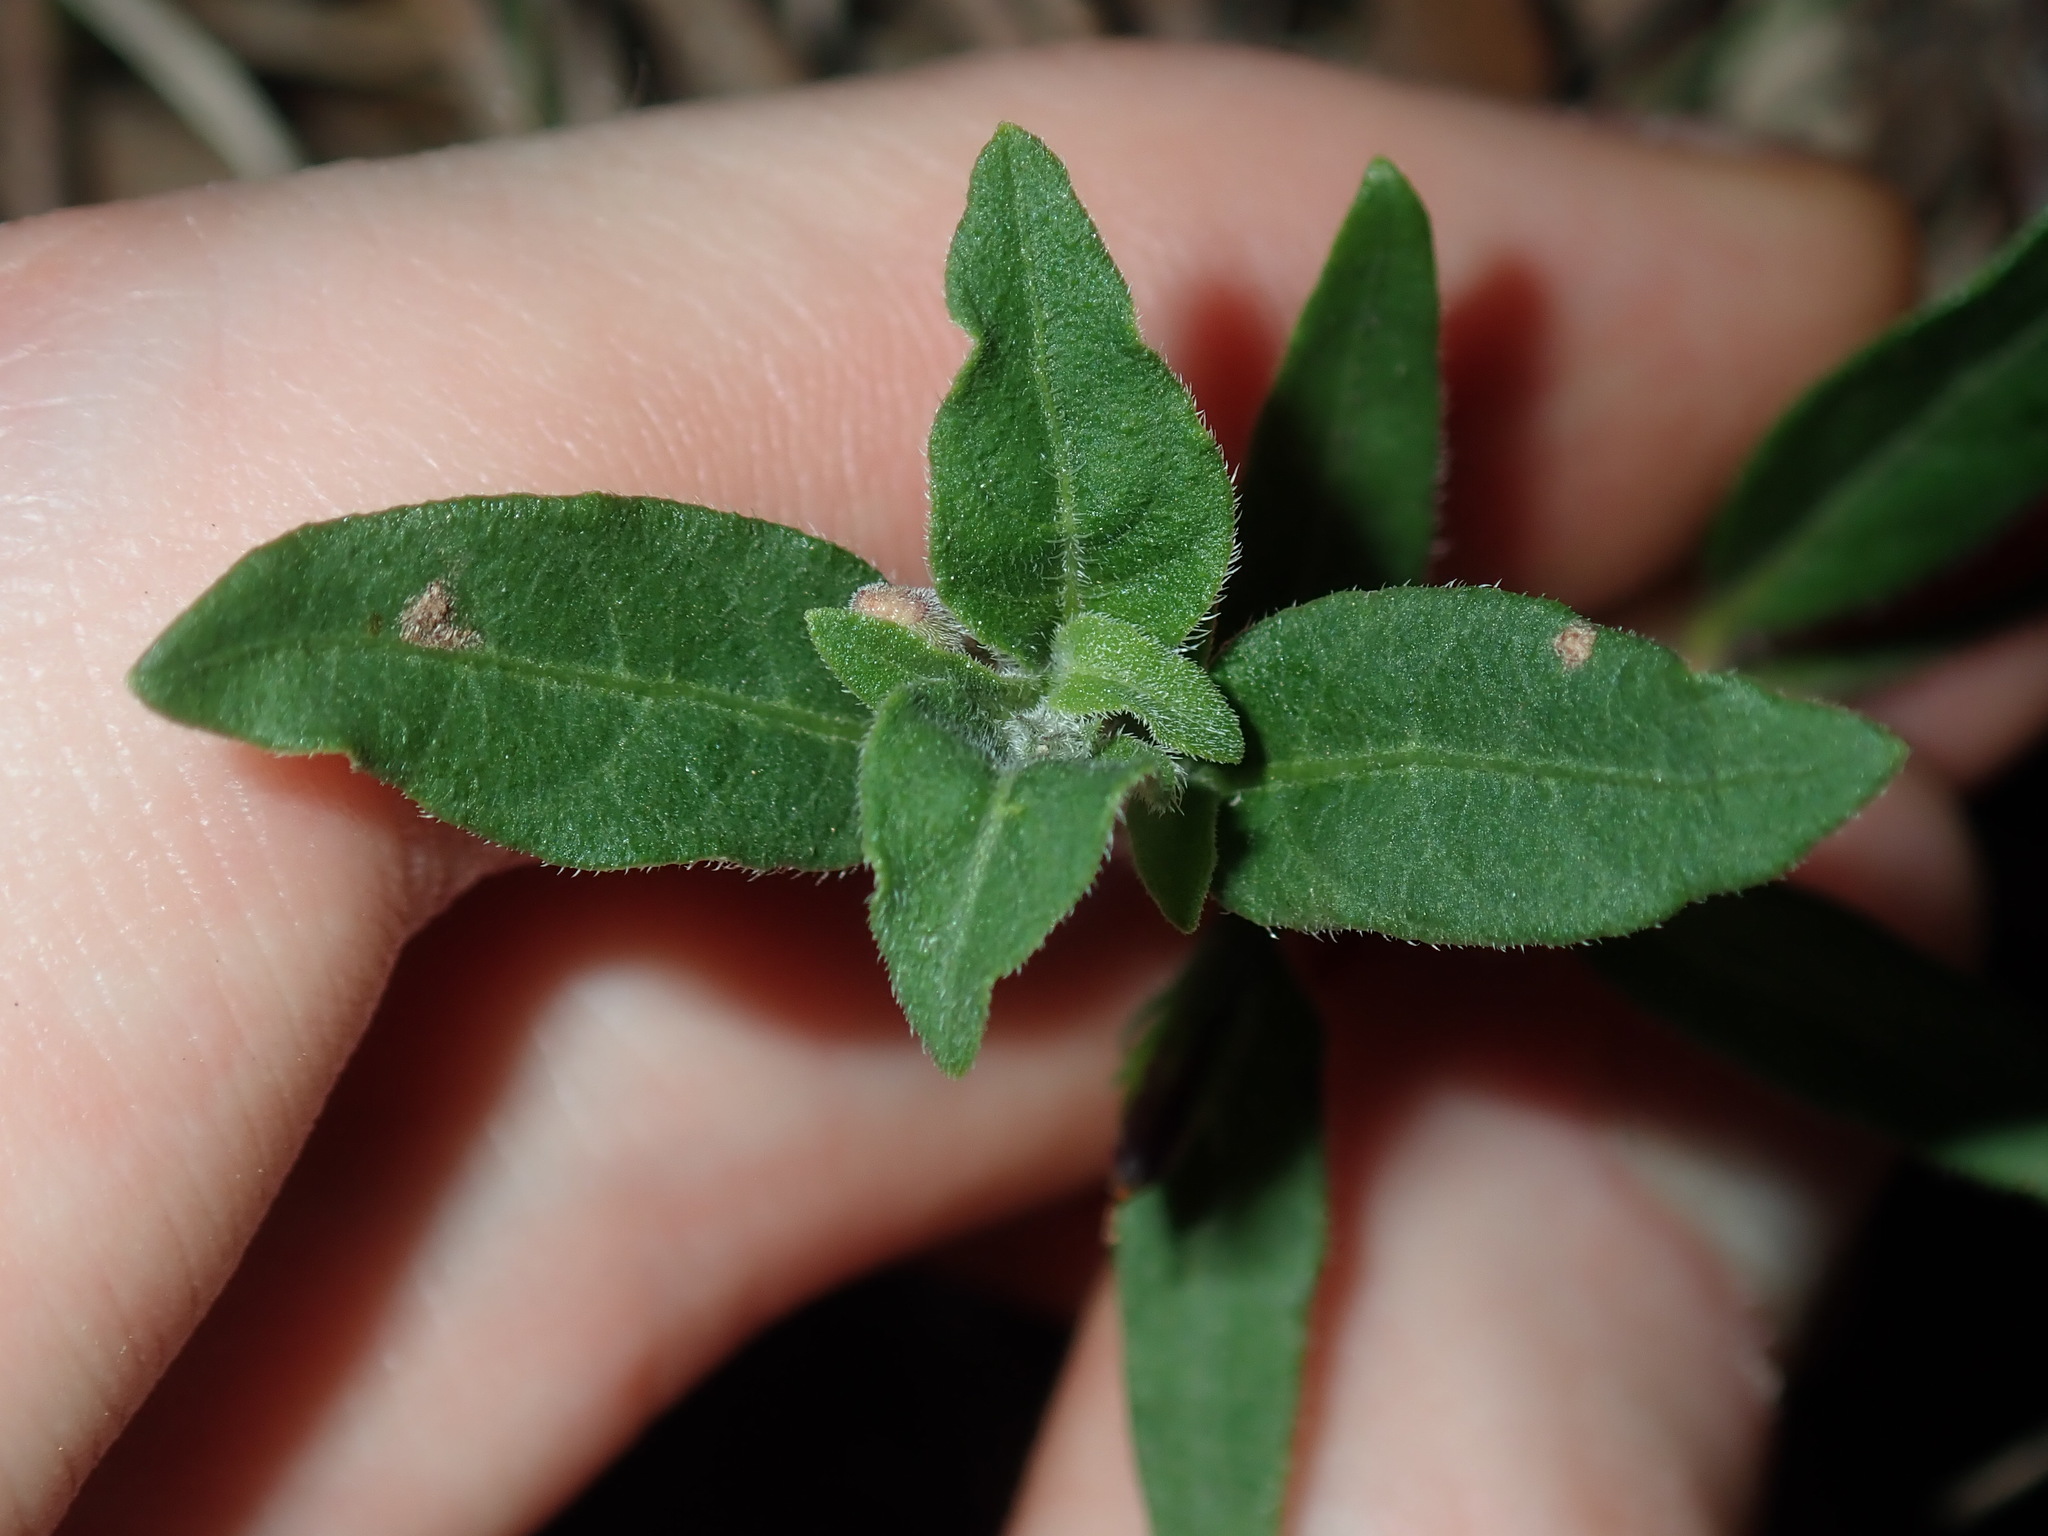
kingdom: Plantae
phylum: Tracheophyta
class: Magnoliopsida
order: Lamiales
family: Acanthaceae
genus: Brunoniella
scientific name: Brunoniella australis
